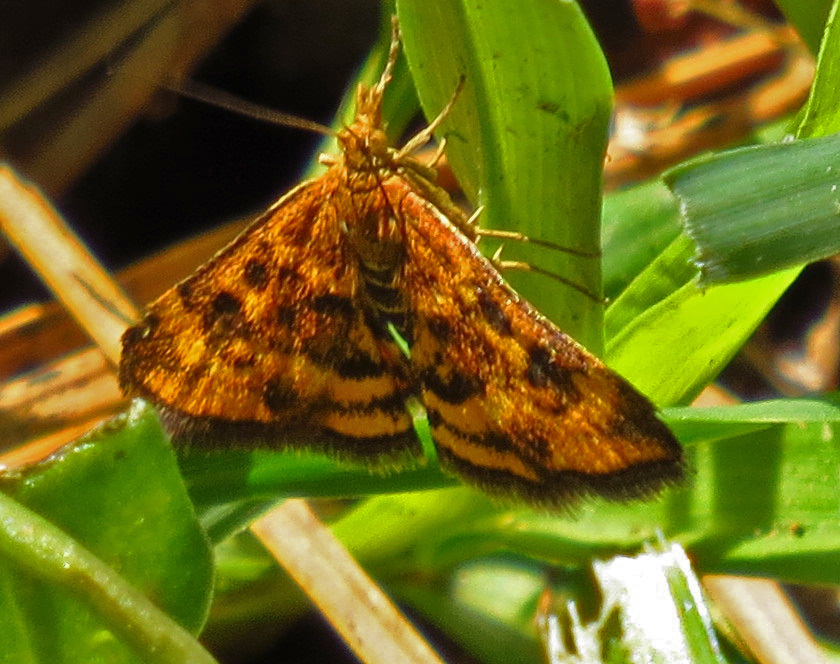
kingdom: Animalia
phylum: Arthropoda
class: Insecta
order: Lepidoptera
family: Crambidae
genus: Pyrausta
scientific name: Pyrausta subsequalis
